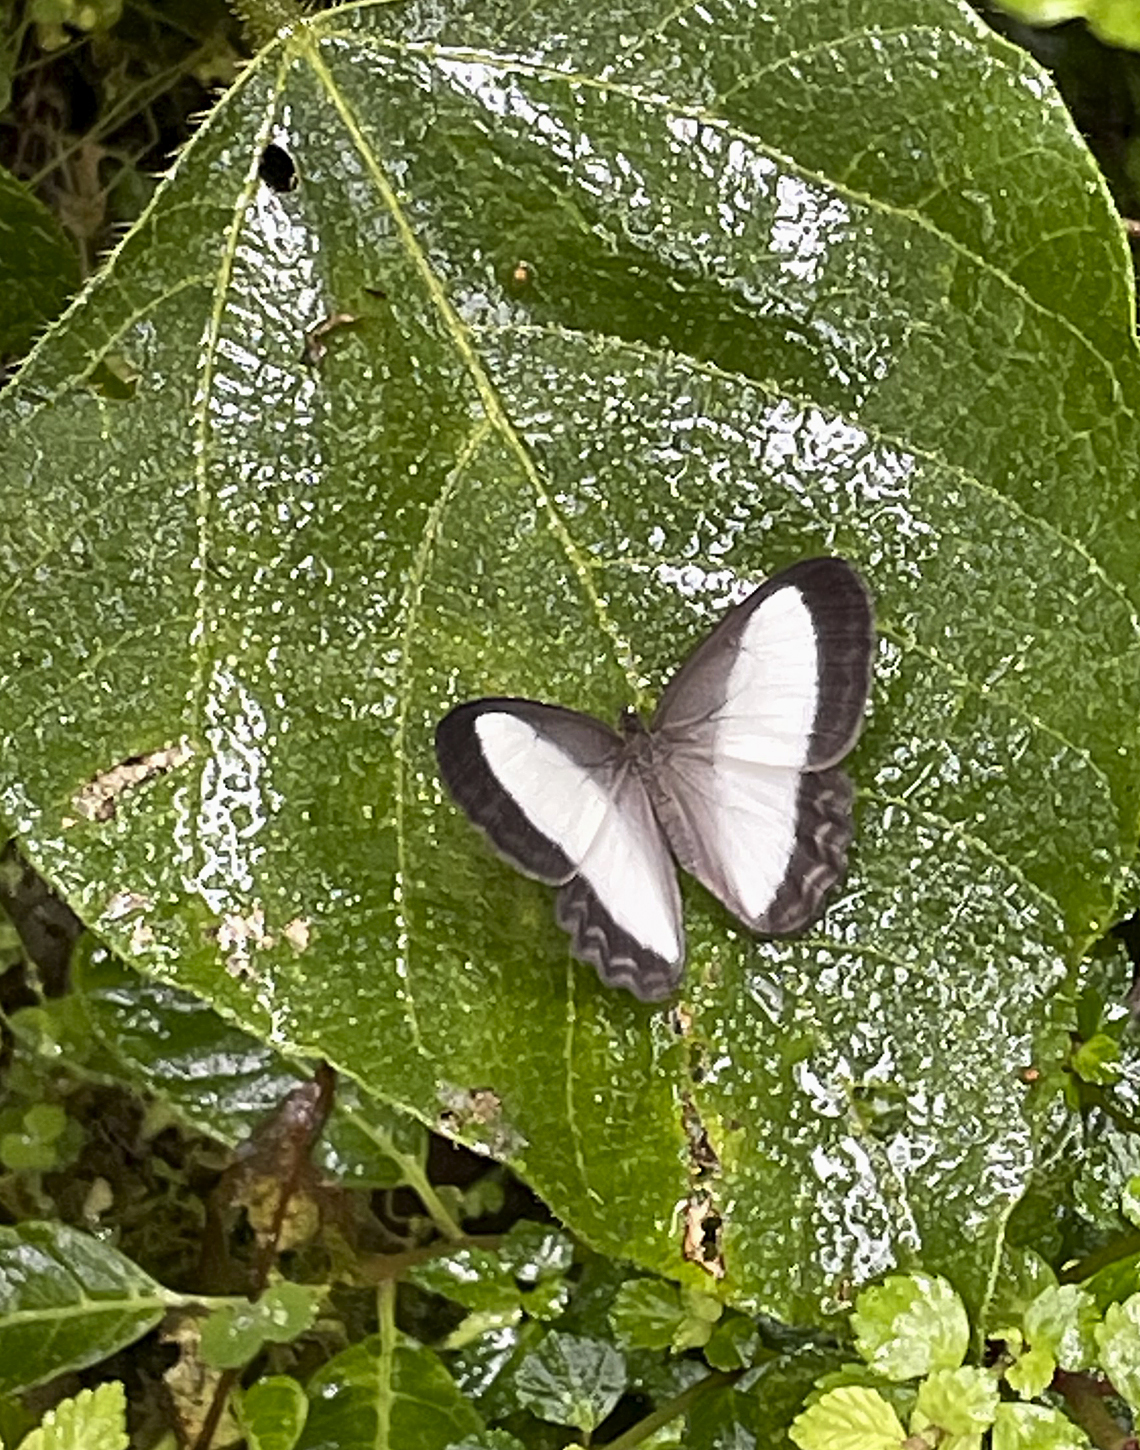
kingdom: Animalia
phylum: Arthropoda
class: Insecta
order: Lepidoptera
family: Nymphalidae
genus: Oressinoma
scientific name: Oressinoma typhla
